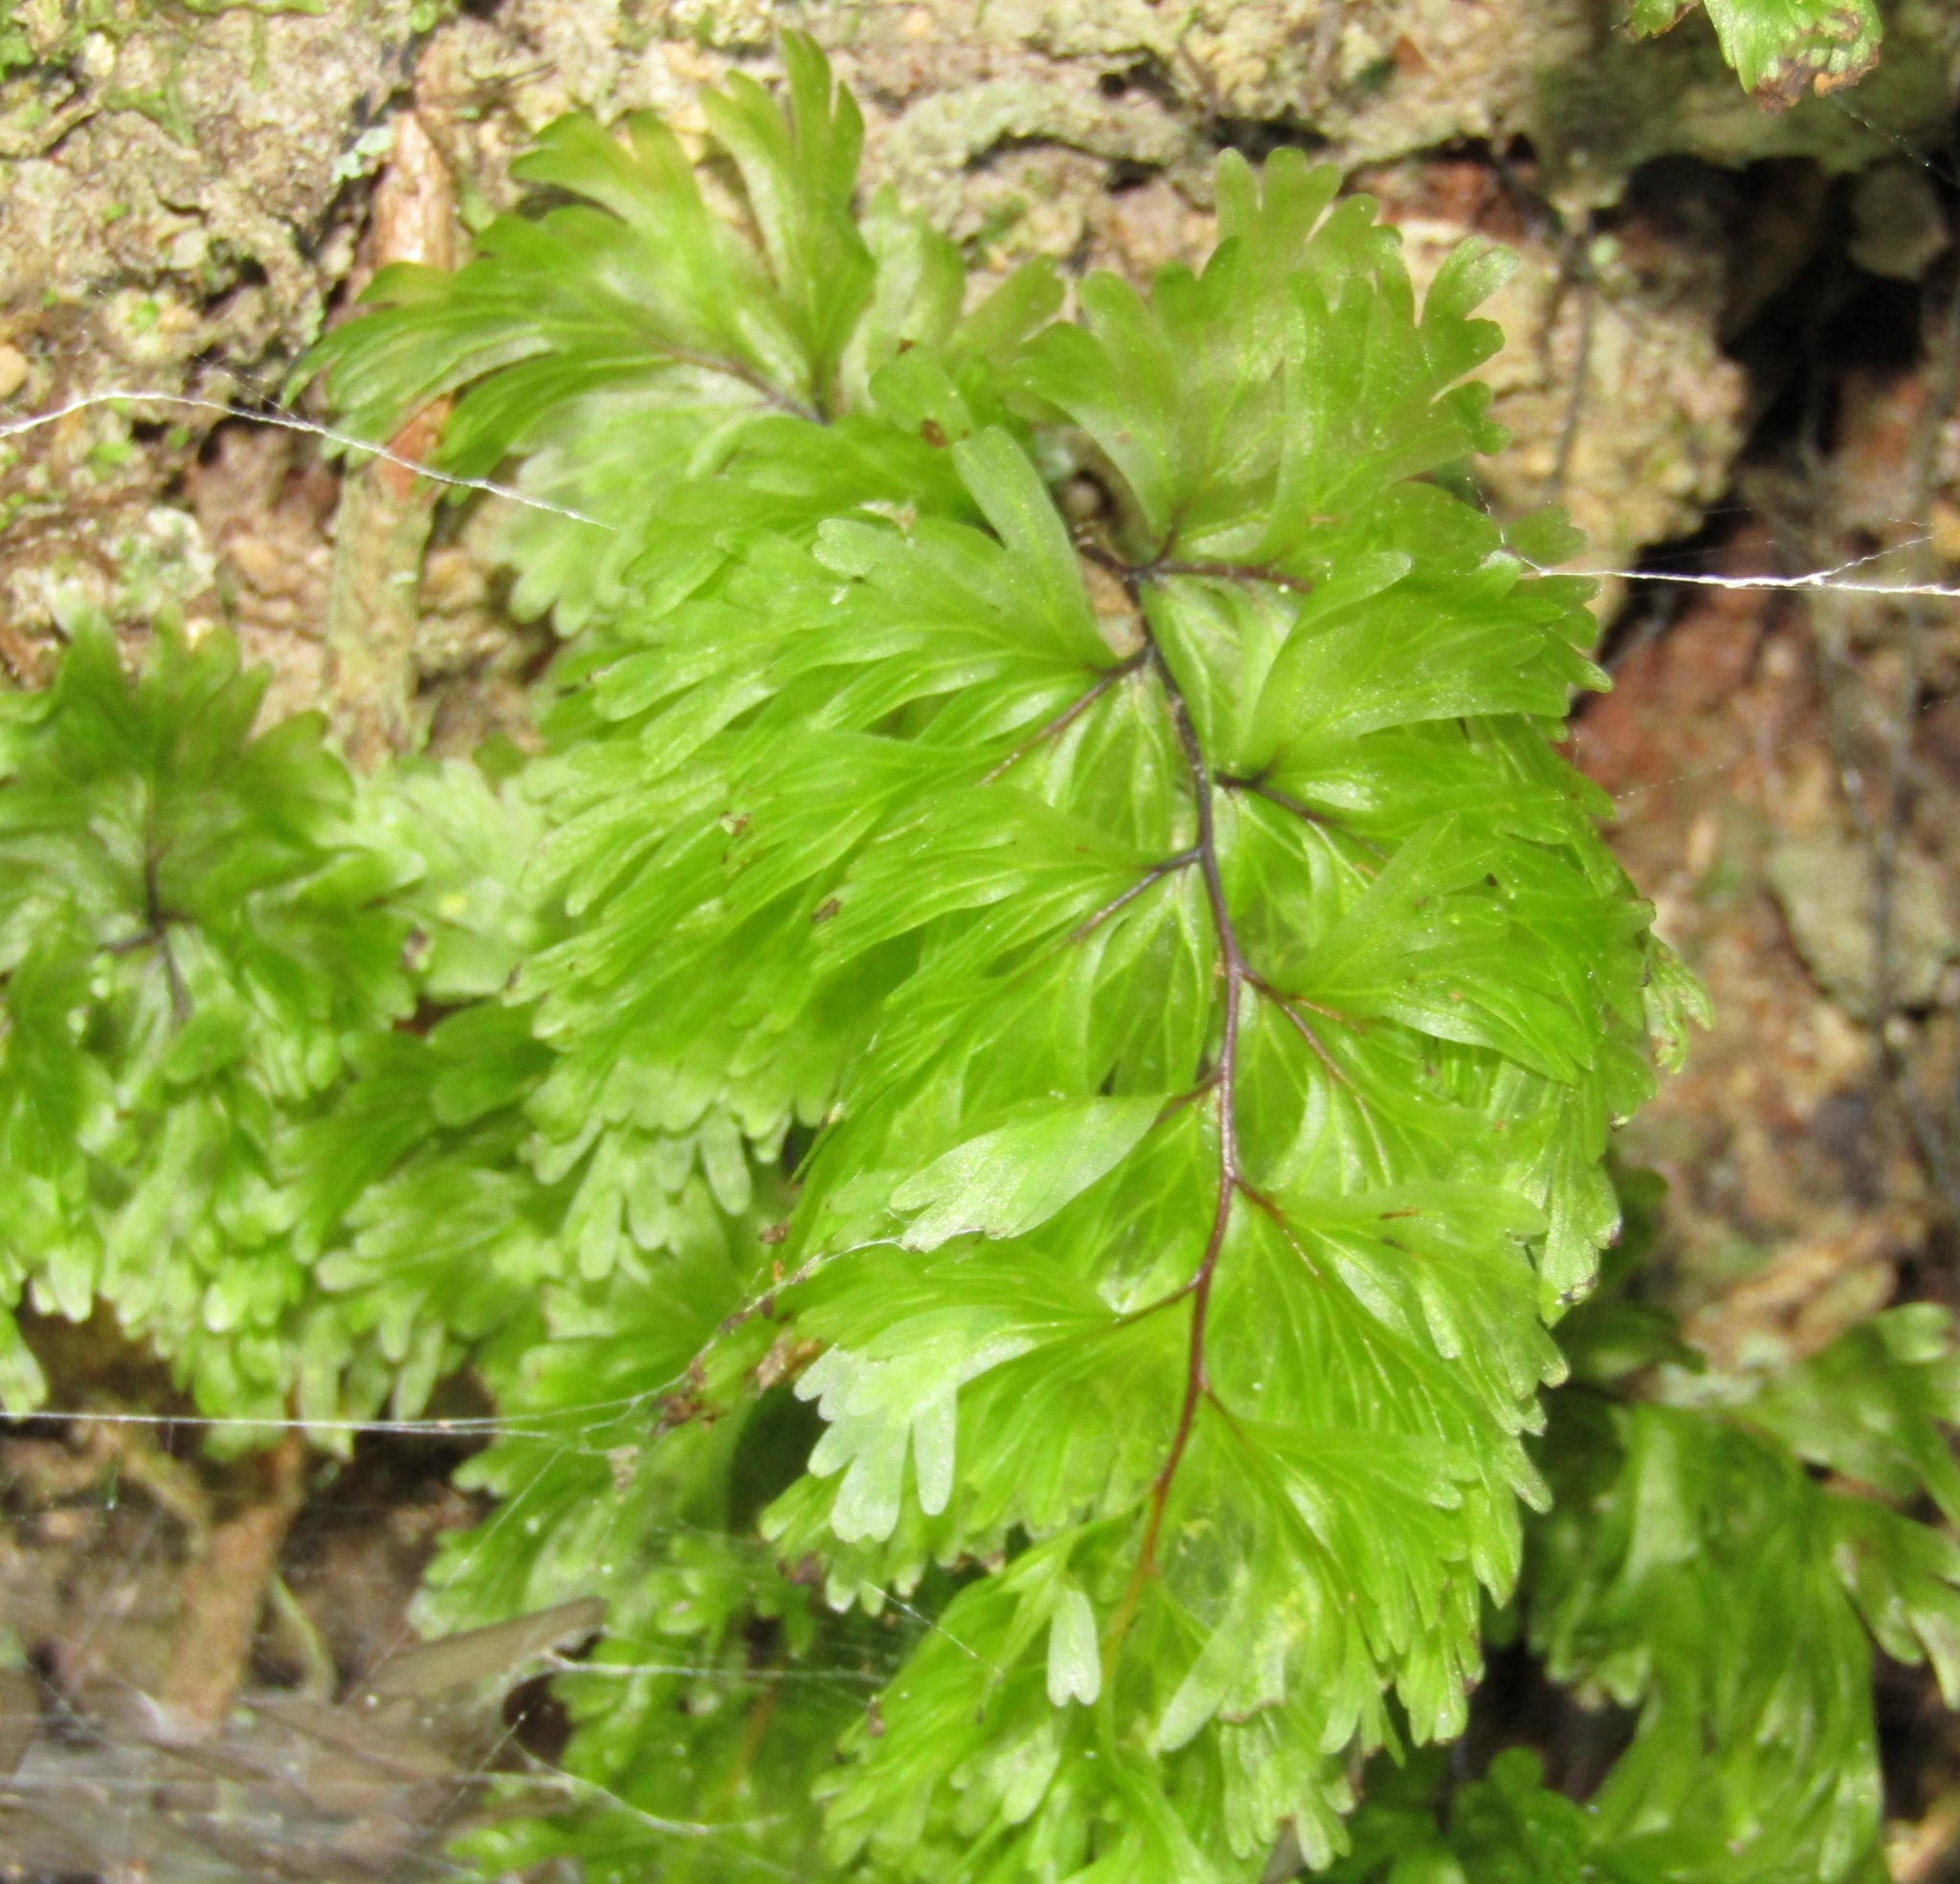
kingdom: Plantae
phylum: Tracheophyta
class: Polypodiopsida
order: Hymenophyllales
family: Hymenophyllaceae
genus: Hymenophyllum
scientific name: Hymenophyllum flabellatum
